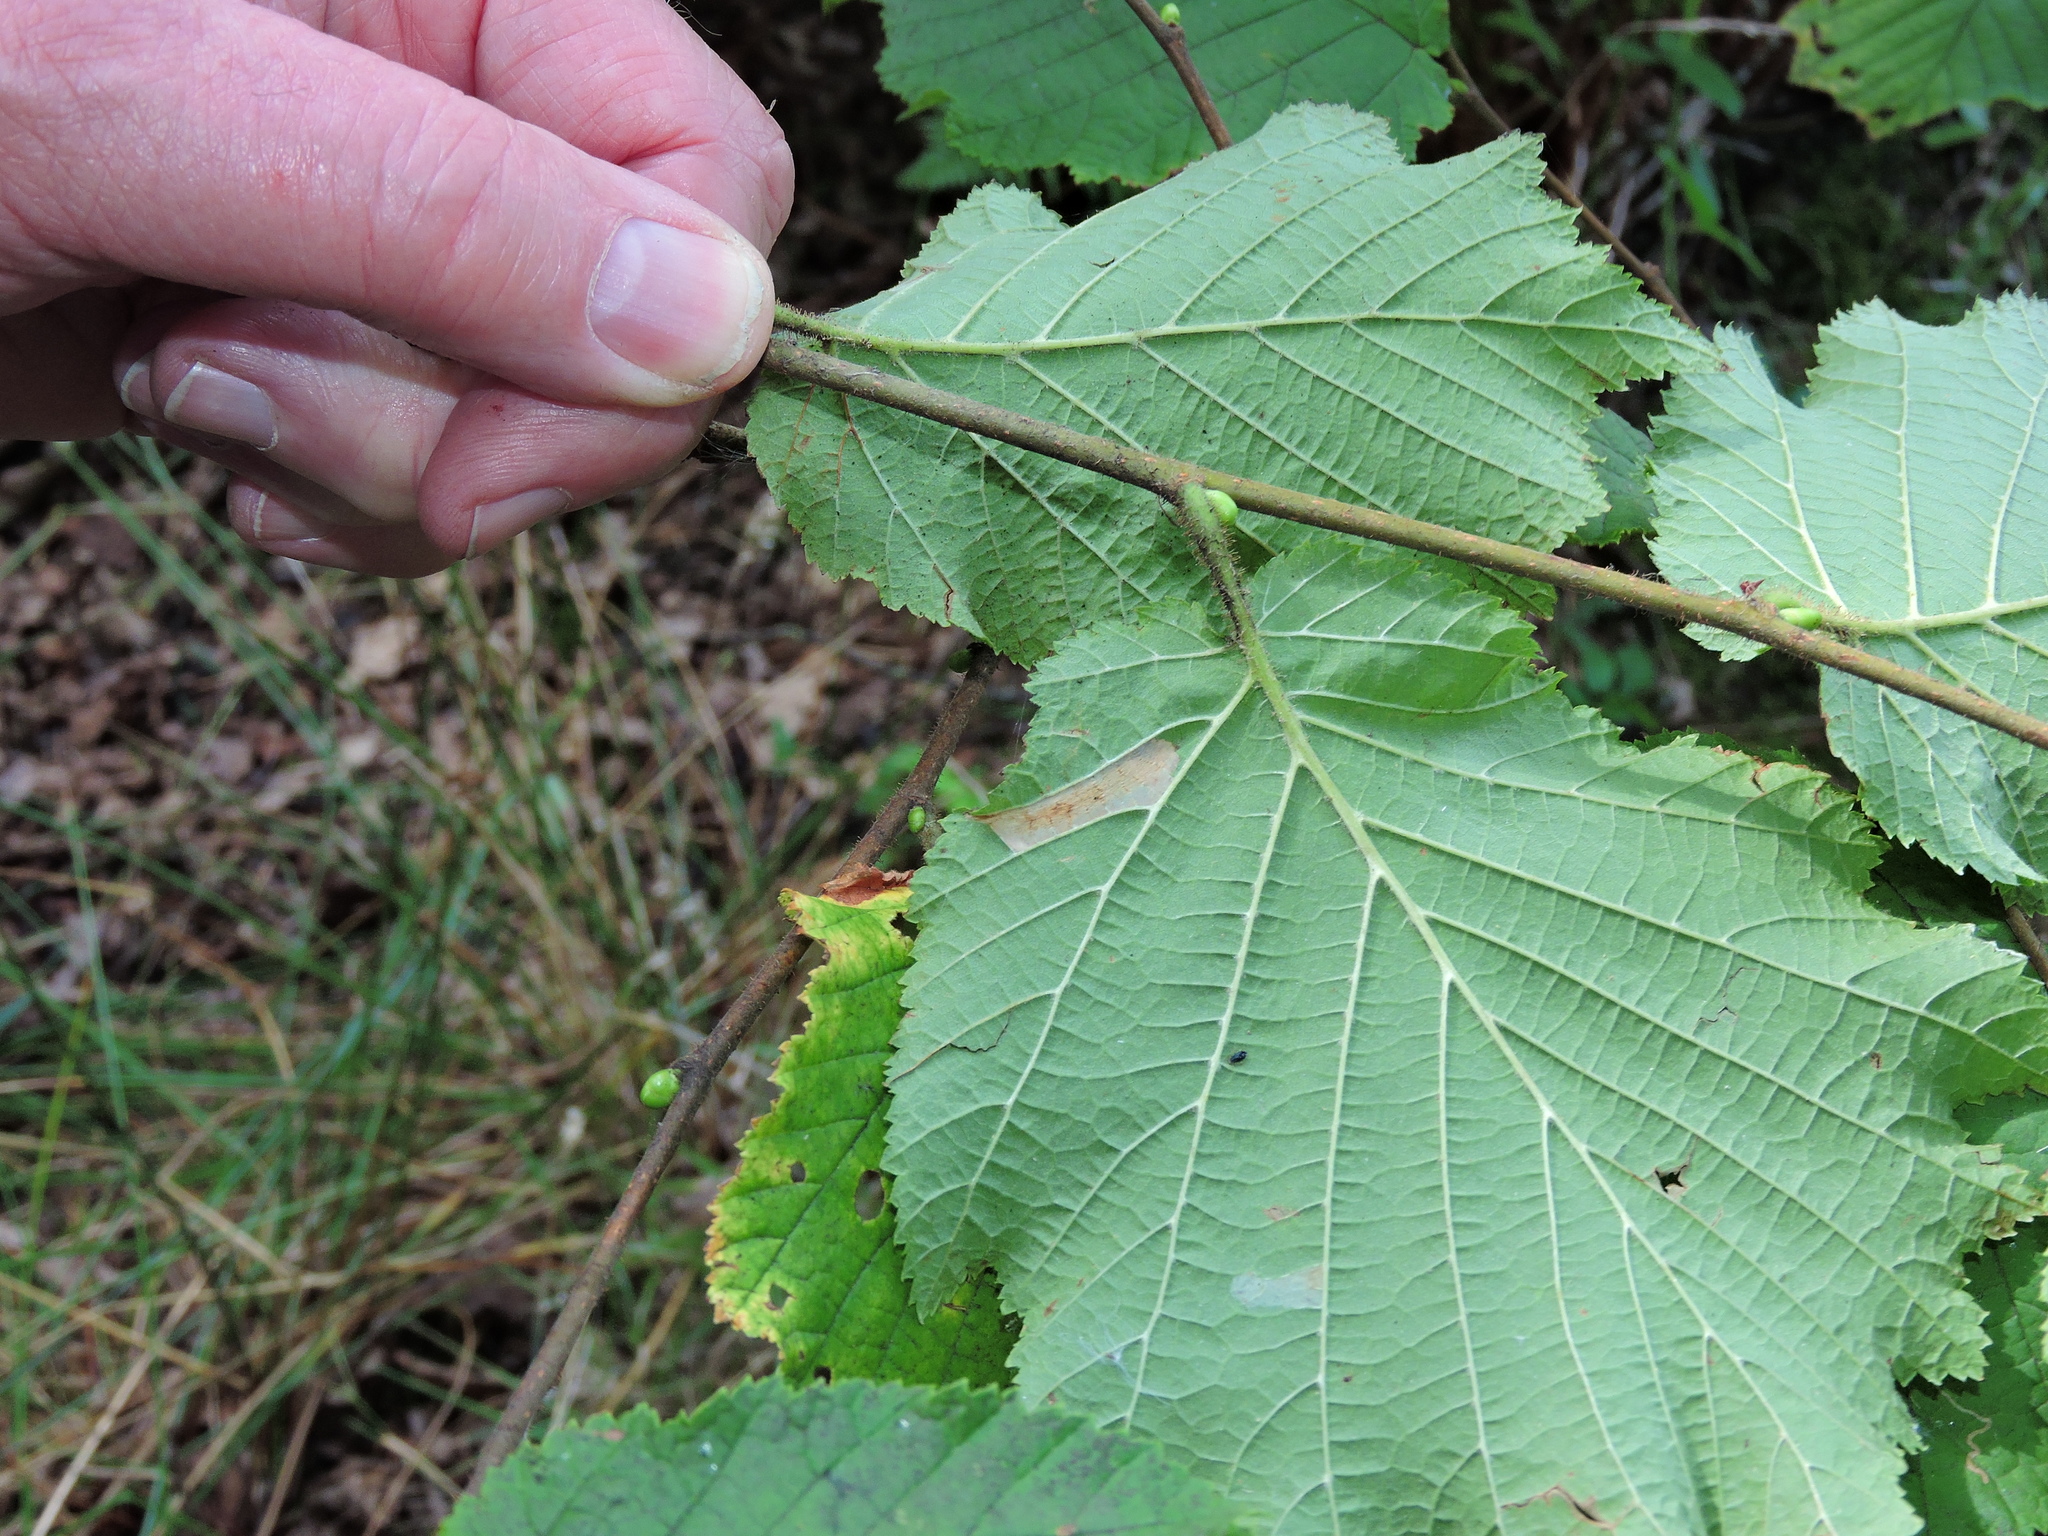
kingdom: Animalia
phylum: Arthropoda
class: Insecta
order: Lepidoptera
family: Gracillariidae
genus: Phyllonorycter
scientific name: Phyllonorycter nicellii
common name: Red hazel midget
